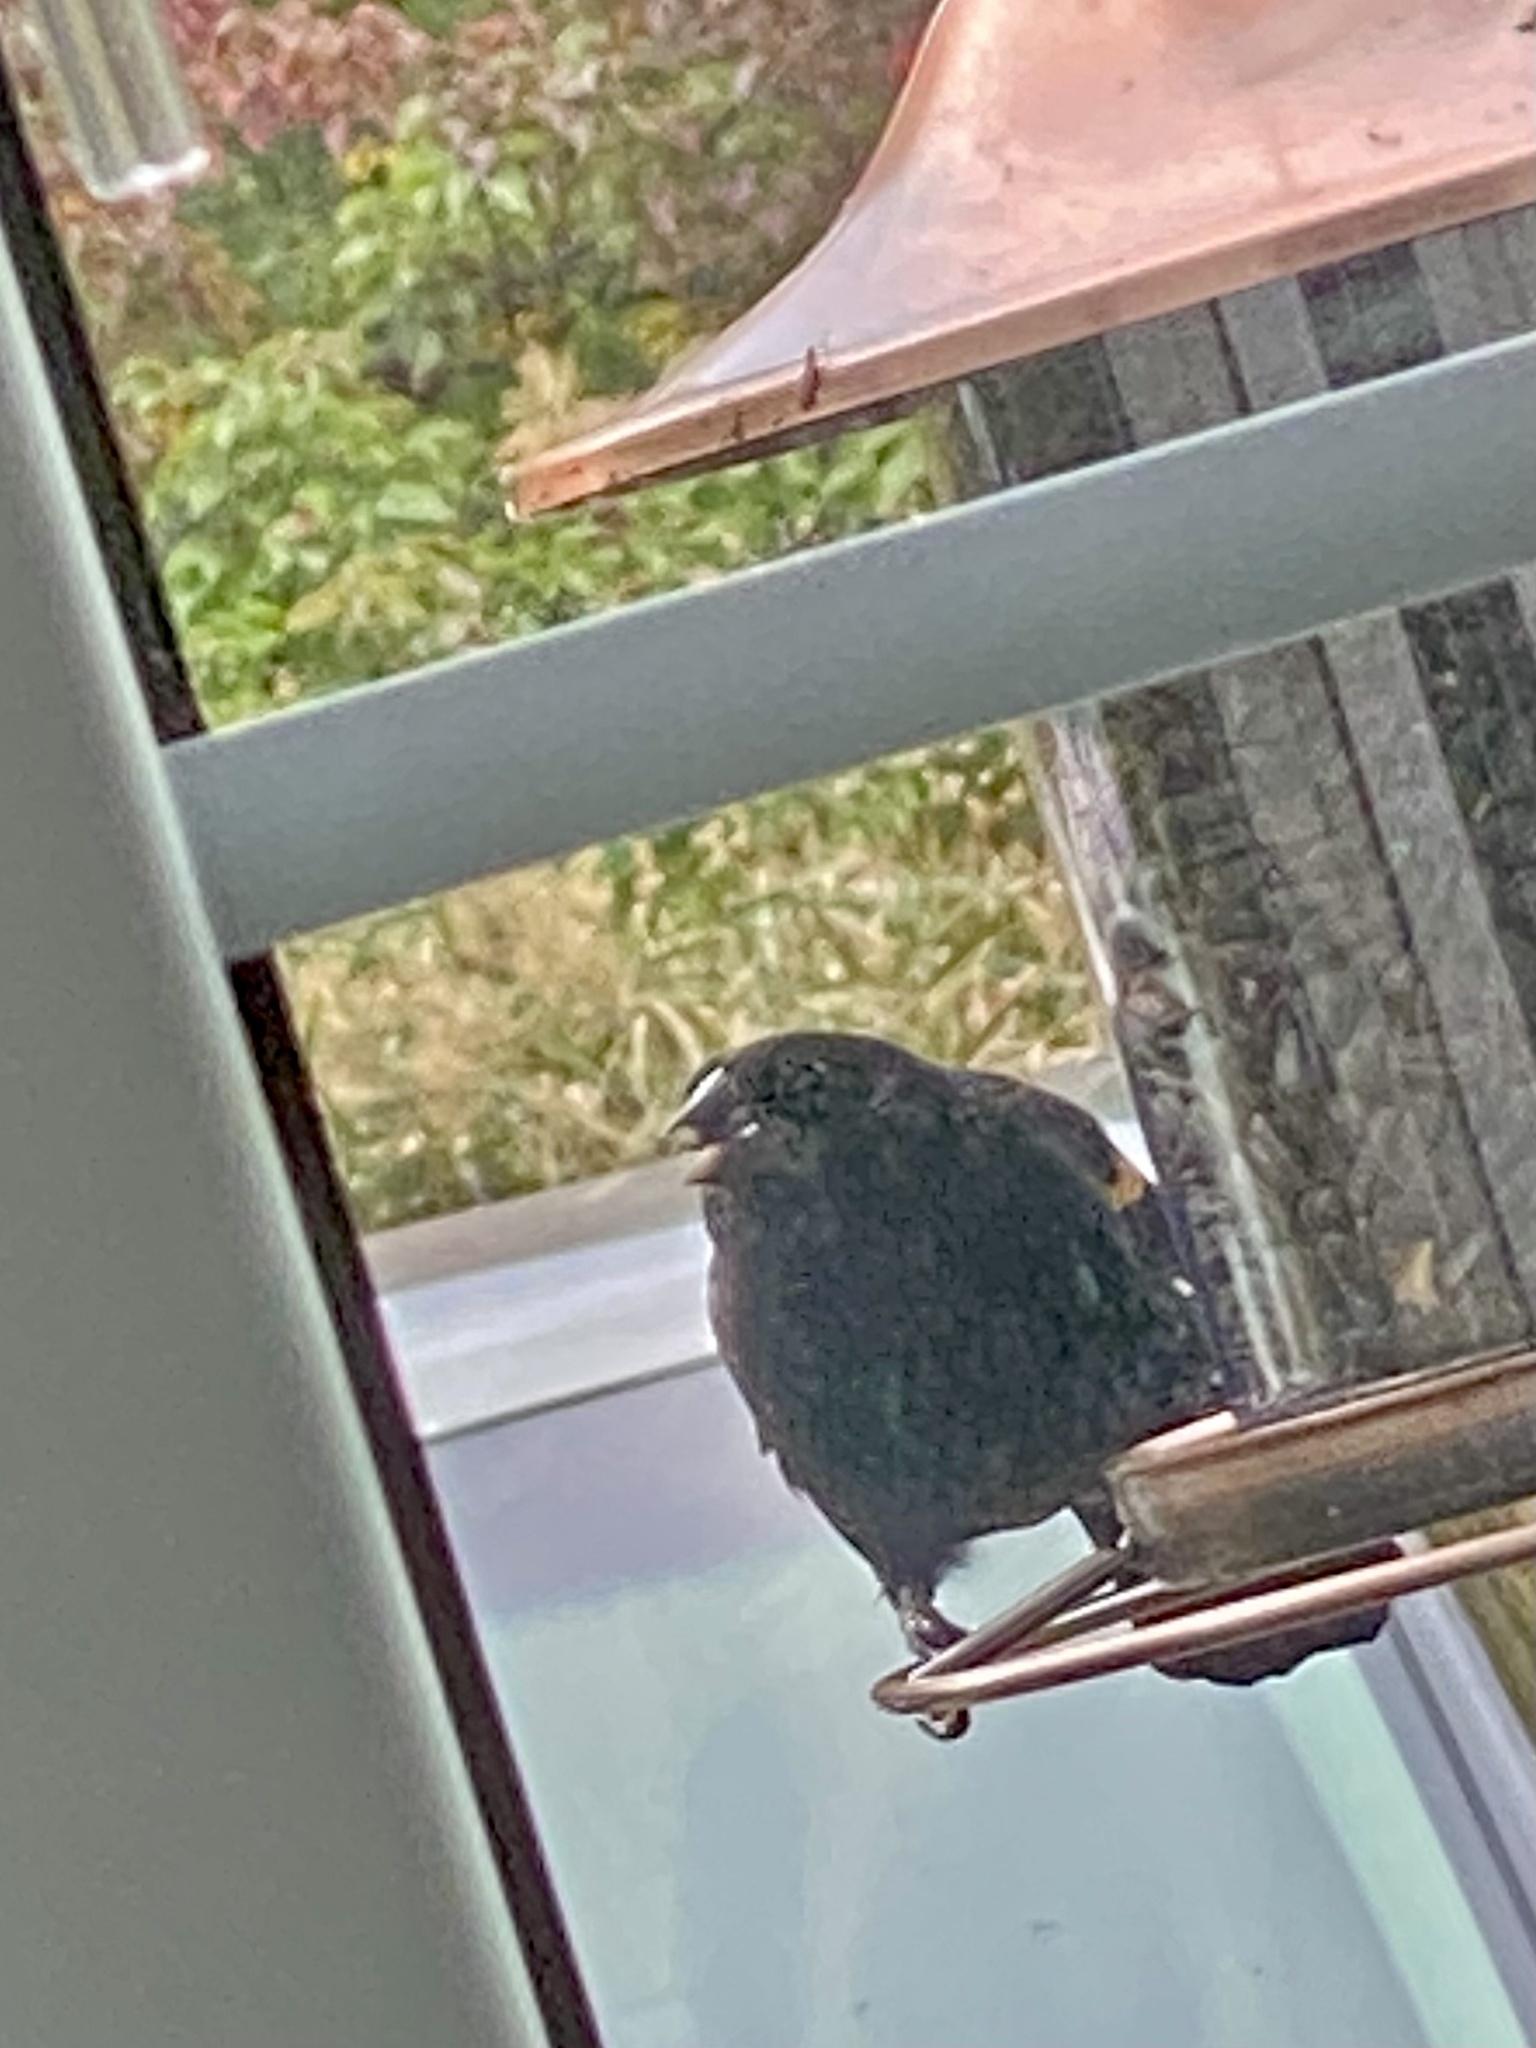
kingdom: Animalia
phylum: Chordata
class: Aves
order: Passeriformes
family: Icteridae
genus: Agelaius
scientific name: Agelaius phoeniceus
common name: Red-winged blackbird
